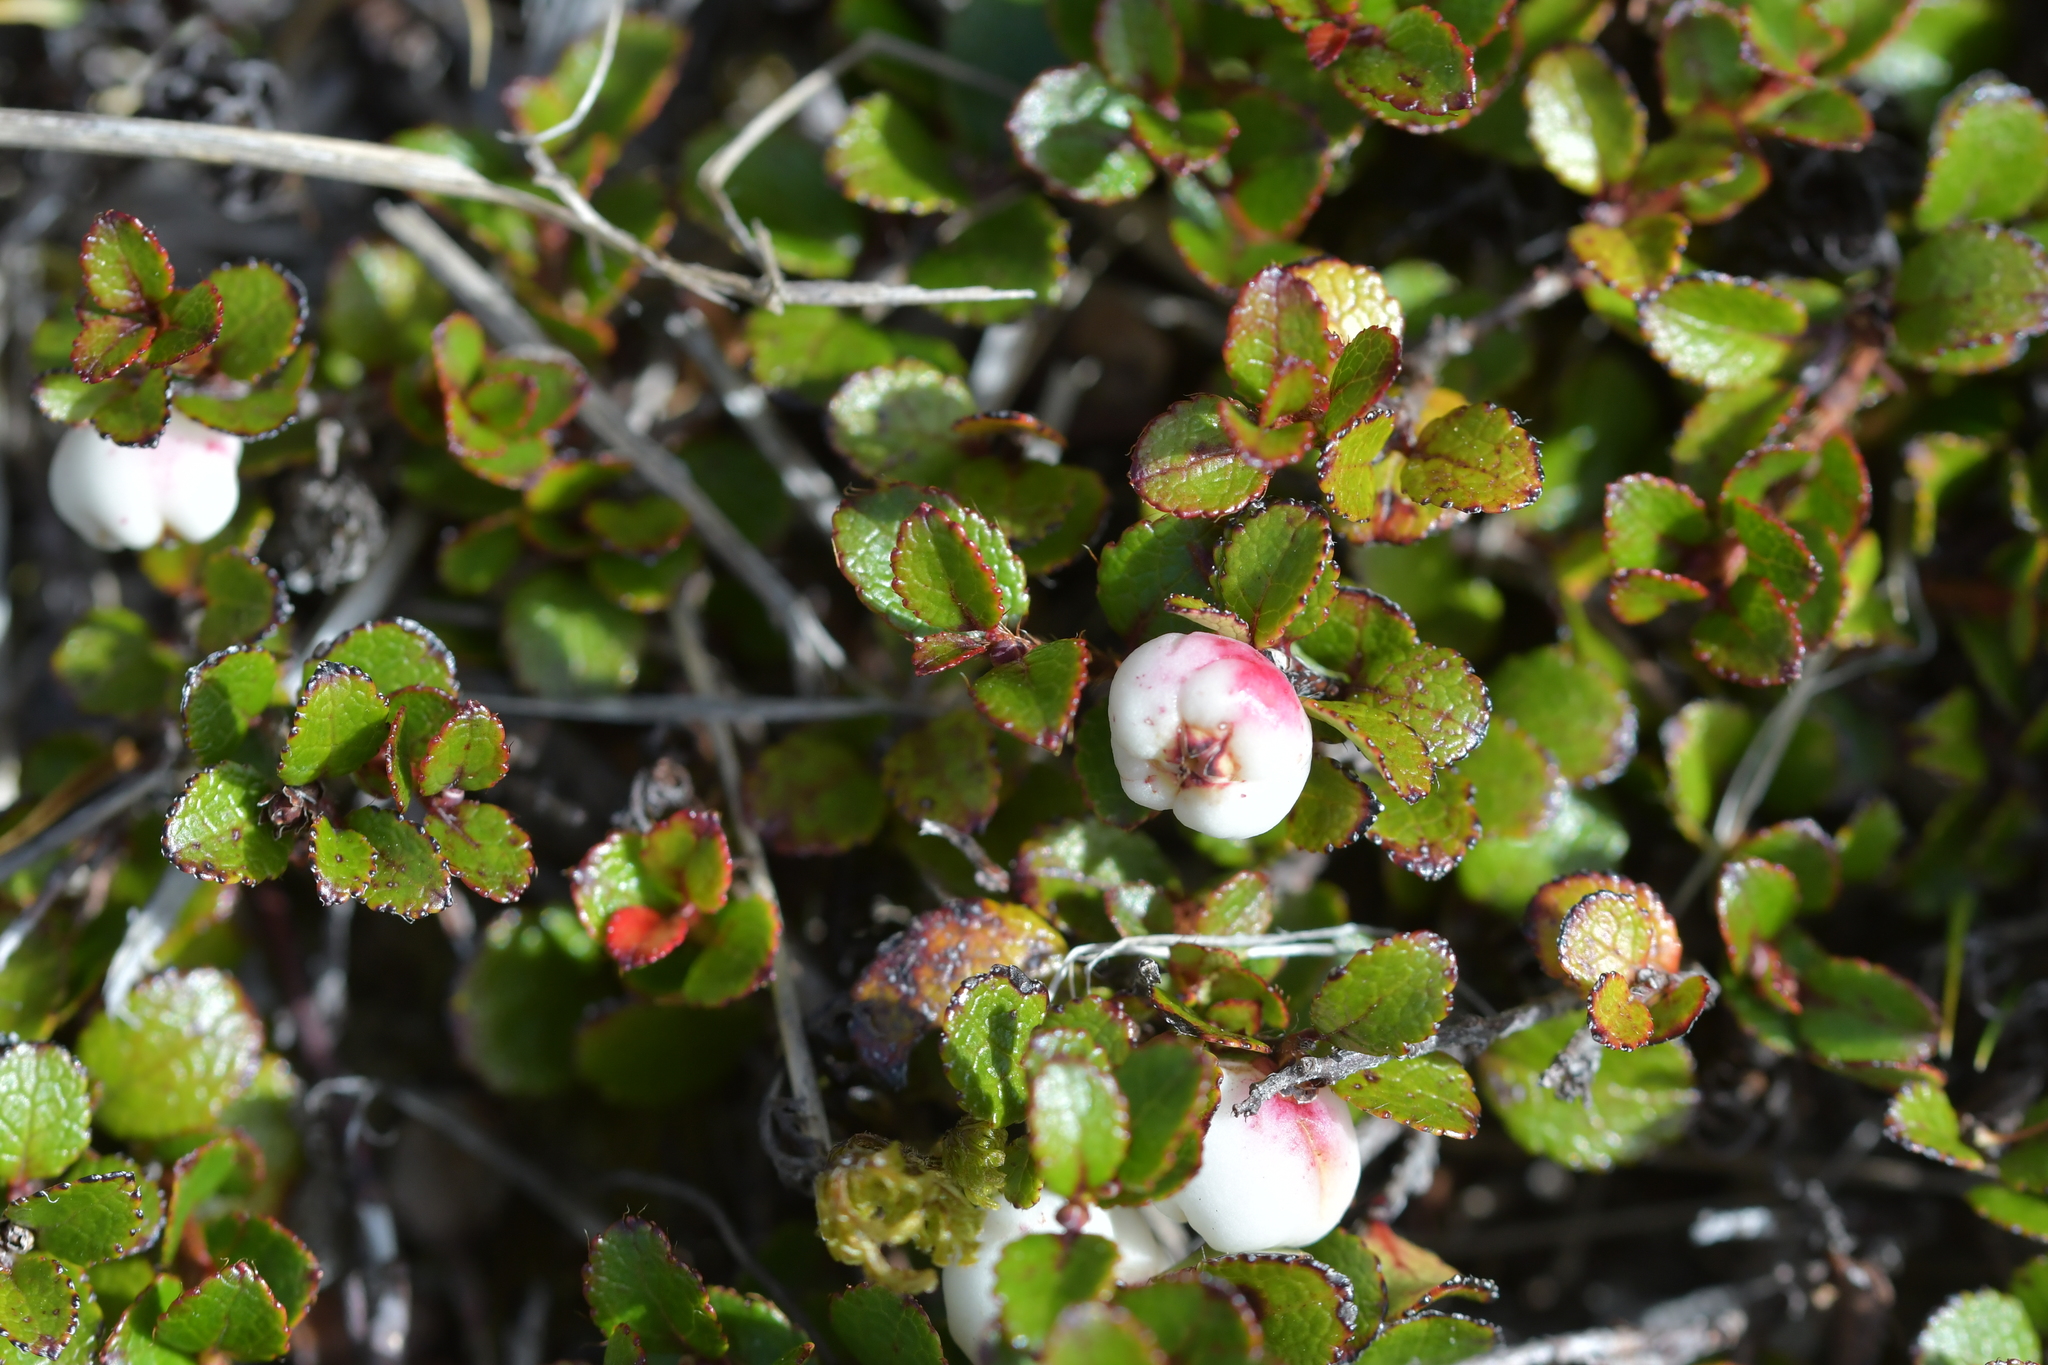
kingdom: Plantae
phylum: Tracheophyta
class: Magnoliopsida
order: Ericales
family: Ericaceae
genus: Gaultheria
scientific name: Gaultheria depressa
